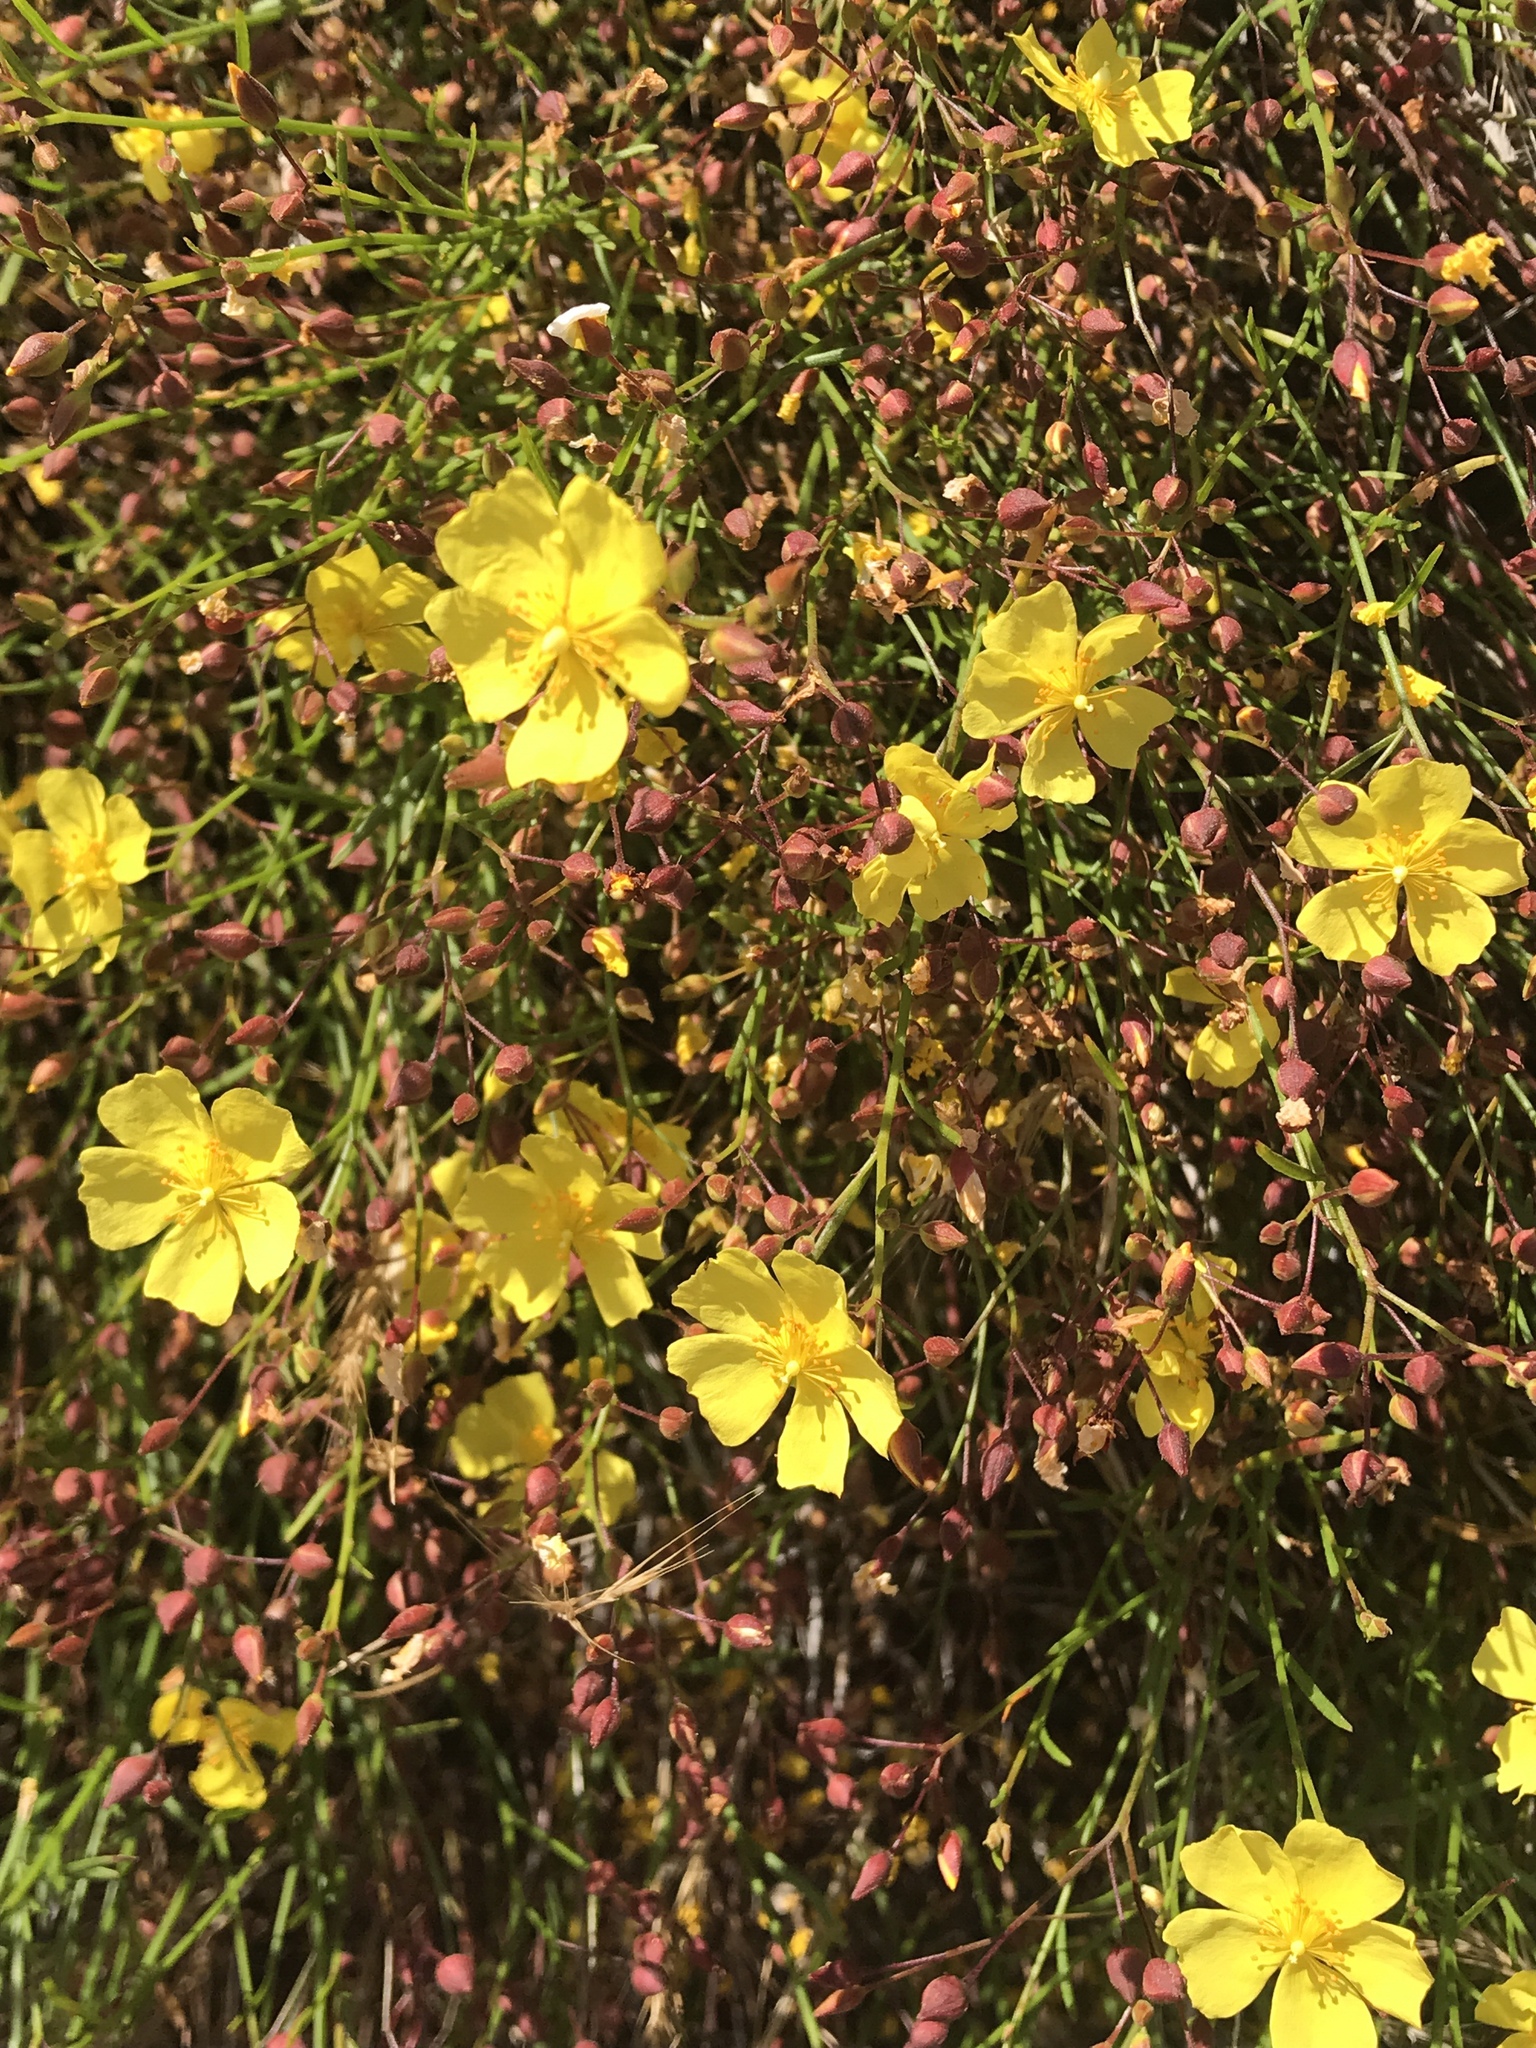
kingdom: Plantae
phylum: Tracheophyta
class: Magnoliopsida
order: Malvales
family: Cistaceae
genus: Crocanthemum
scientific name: Crocanthemum scoparium
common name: Broom-rose
